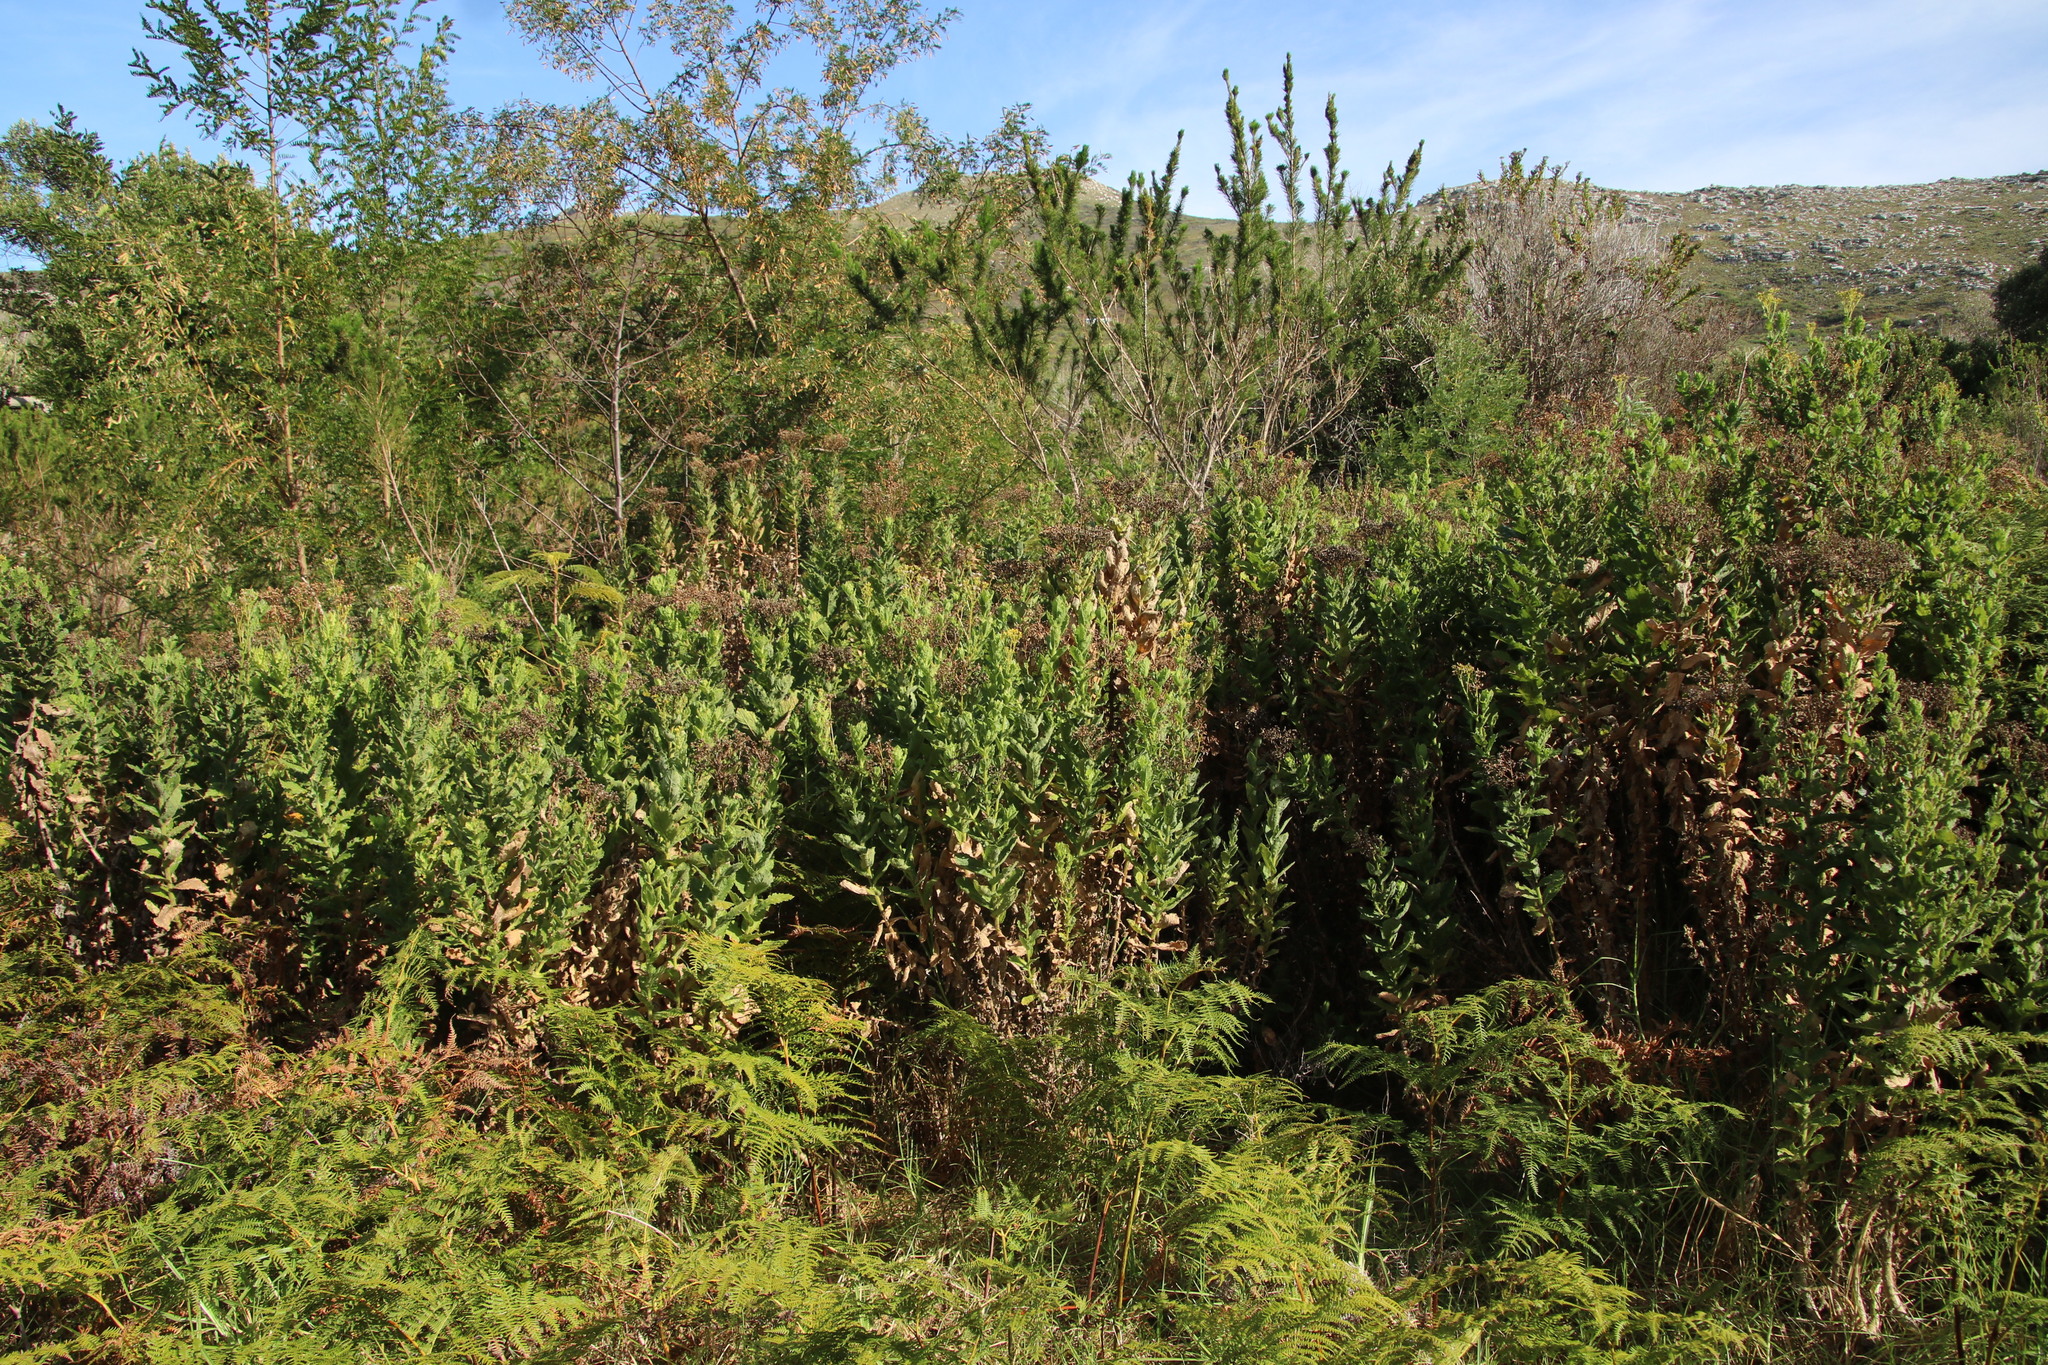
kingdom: Plantae
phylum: Tracheophyta
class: Magnoliopsida
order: Asterales
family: Asteraceae
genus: Senecio
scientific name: Senecio rigidus
